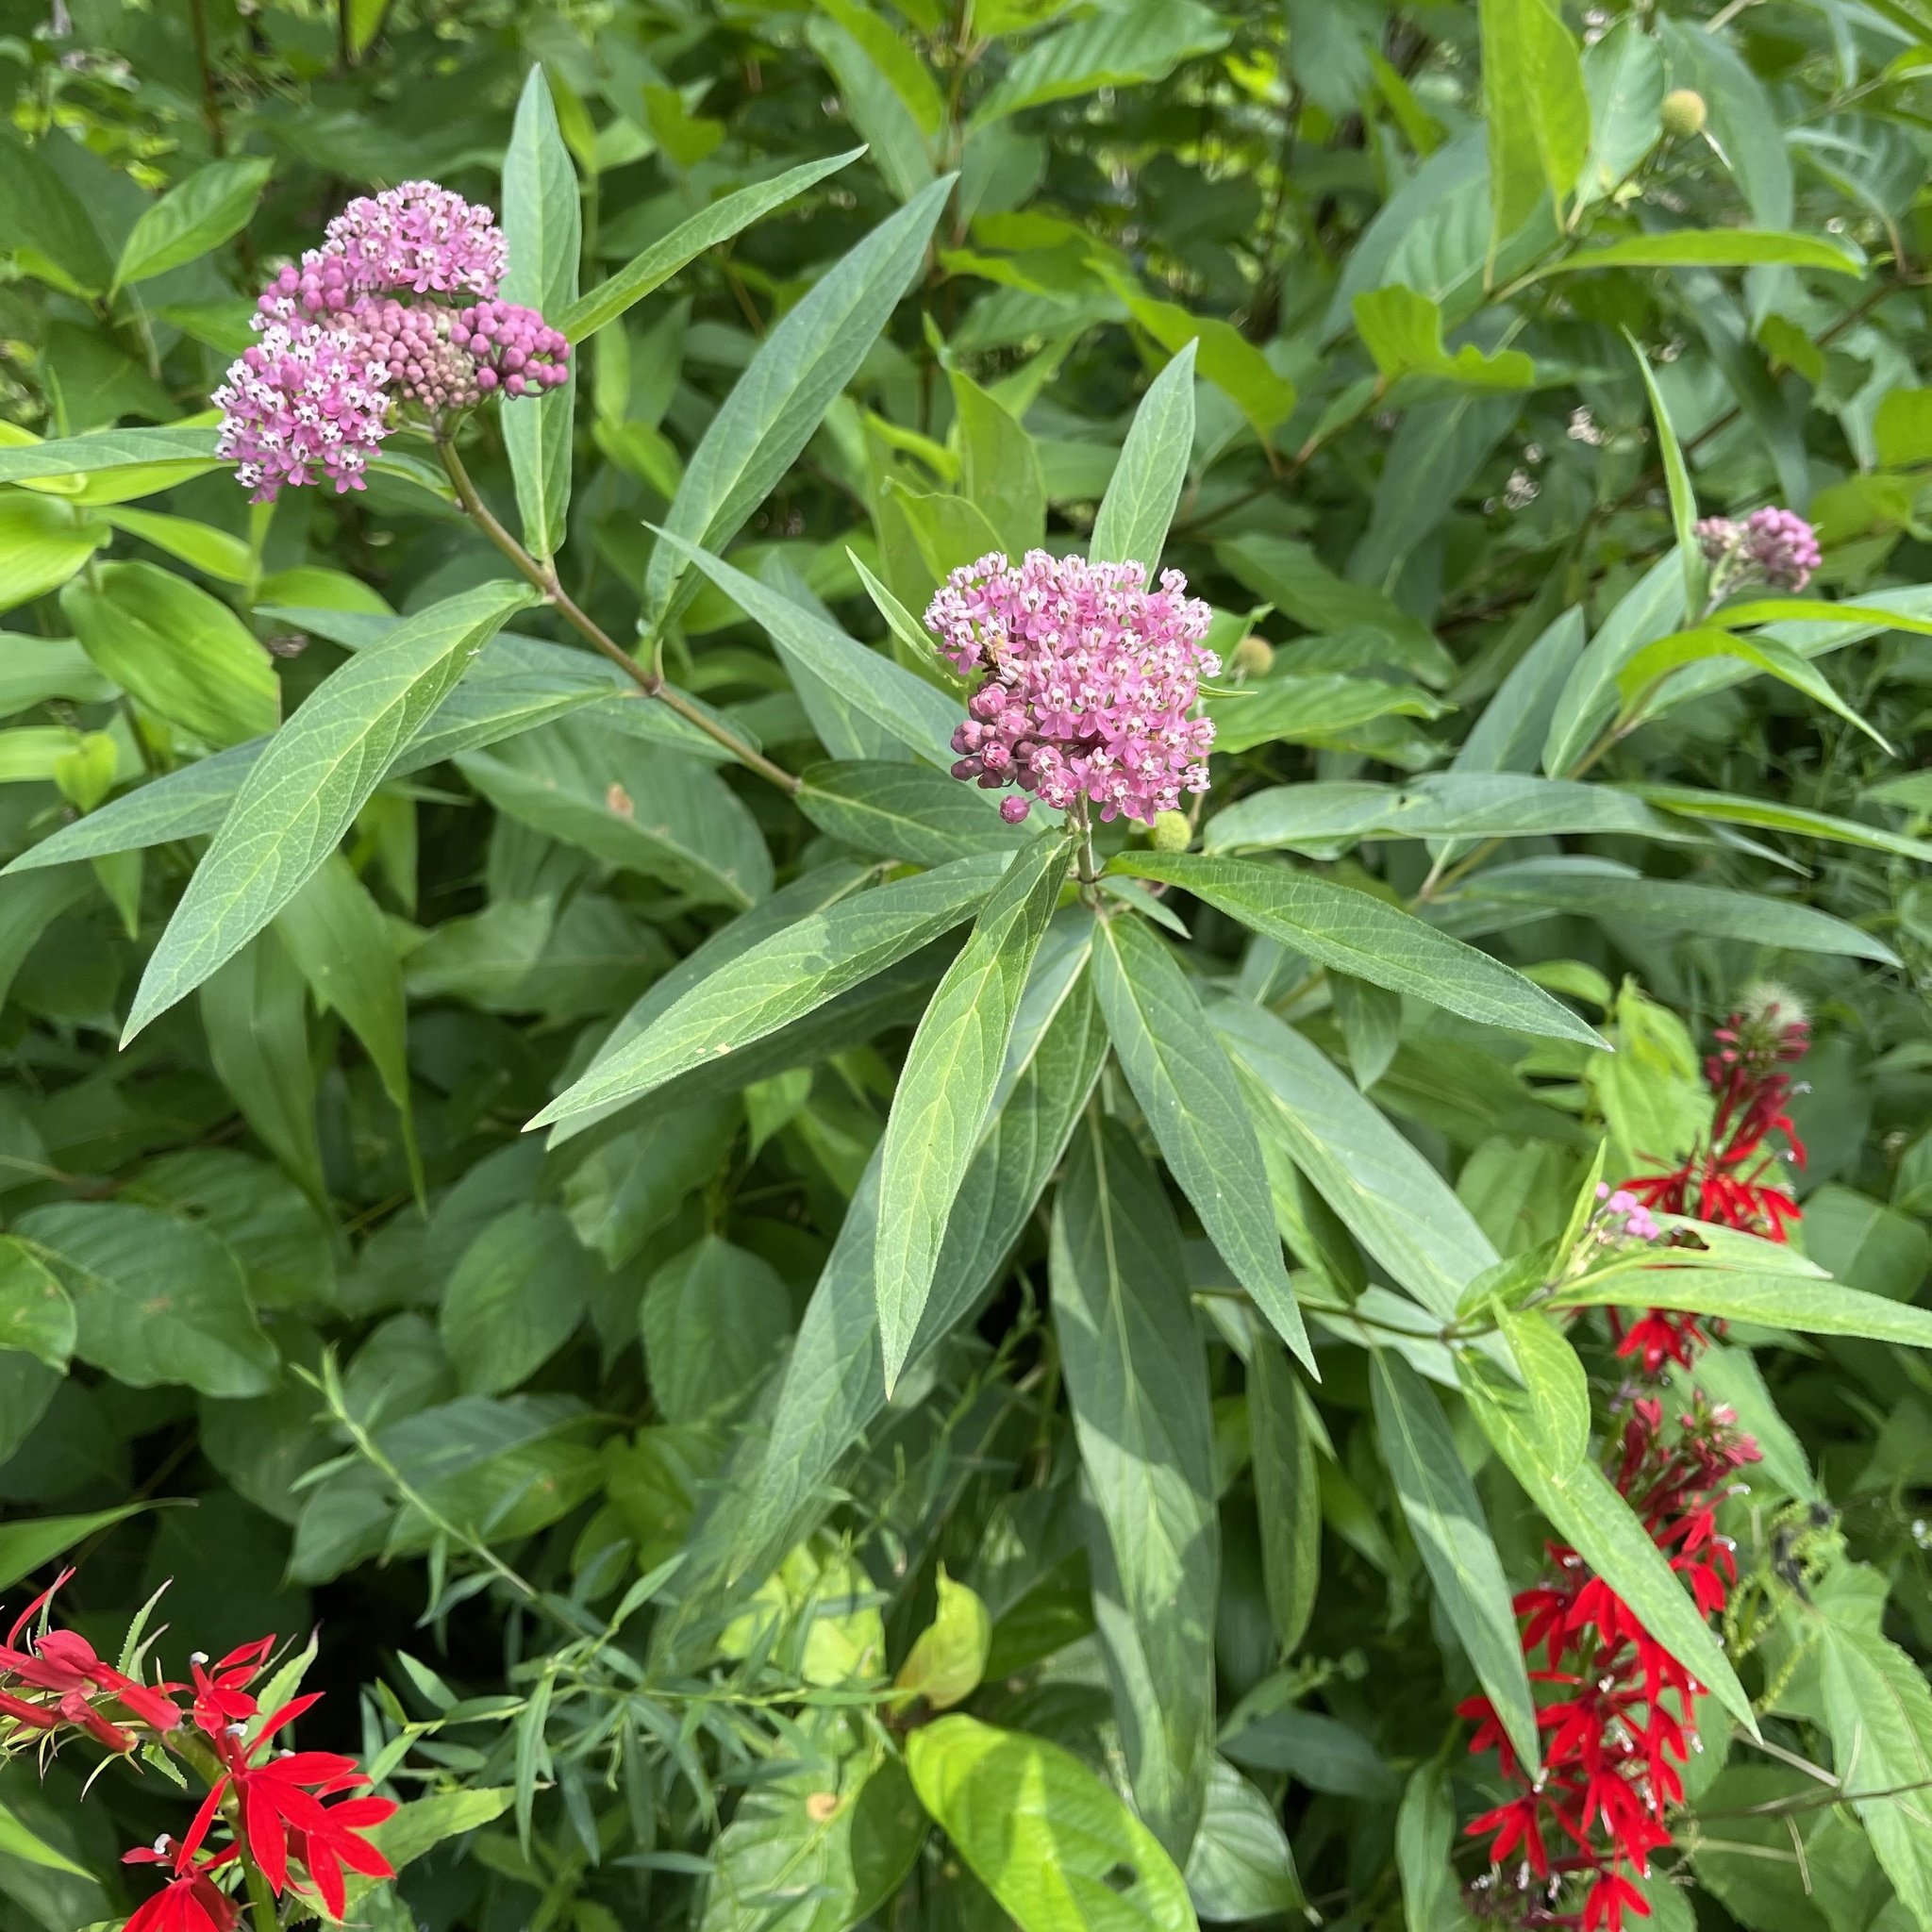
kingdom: Plantae
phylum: Tracheophyta
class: Magnoliopsida
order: Gentianales
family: Apocynaceae
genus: Asclepias
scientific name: Asclepias incarnata
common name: Swamp milkweed
